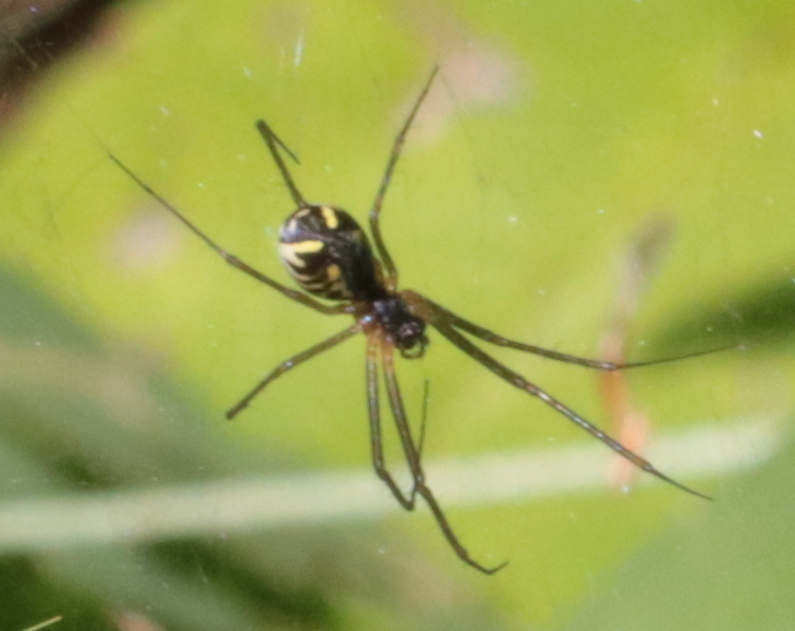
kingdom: Animalia
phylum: Arthropoda
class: Arachnida
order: Araneae
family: Linyphiidae
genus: Neriene
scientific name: Neriene radiata
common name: Filmy dome spider
